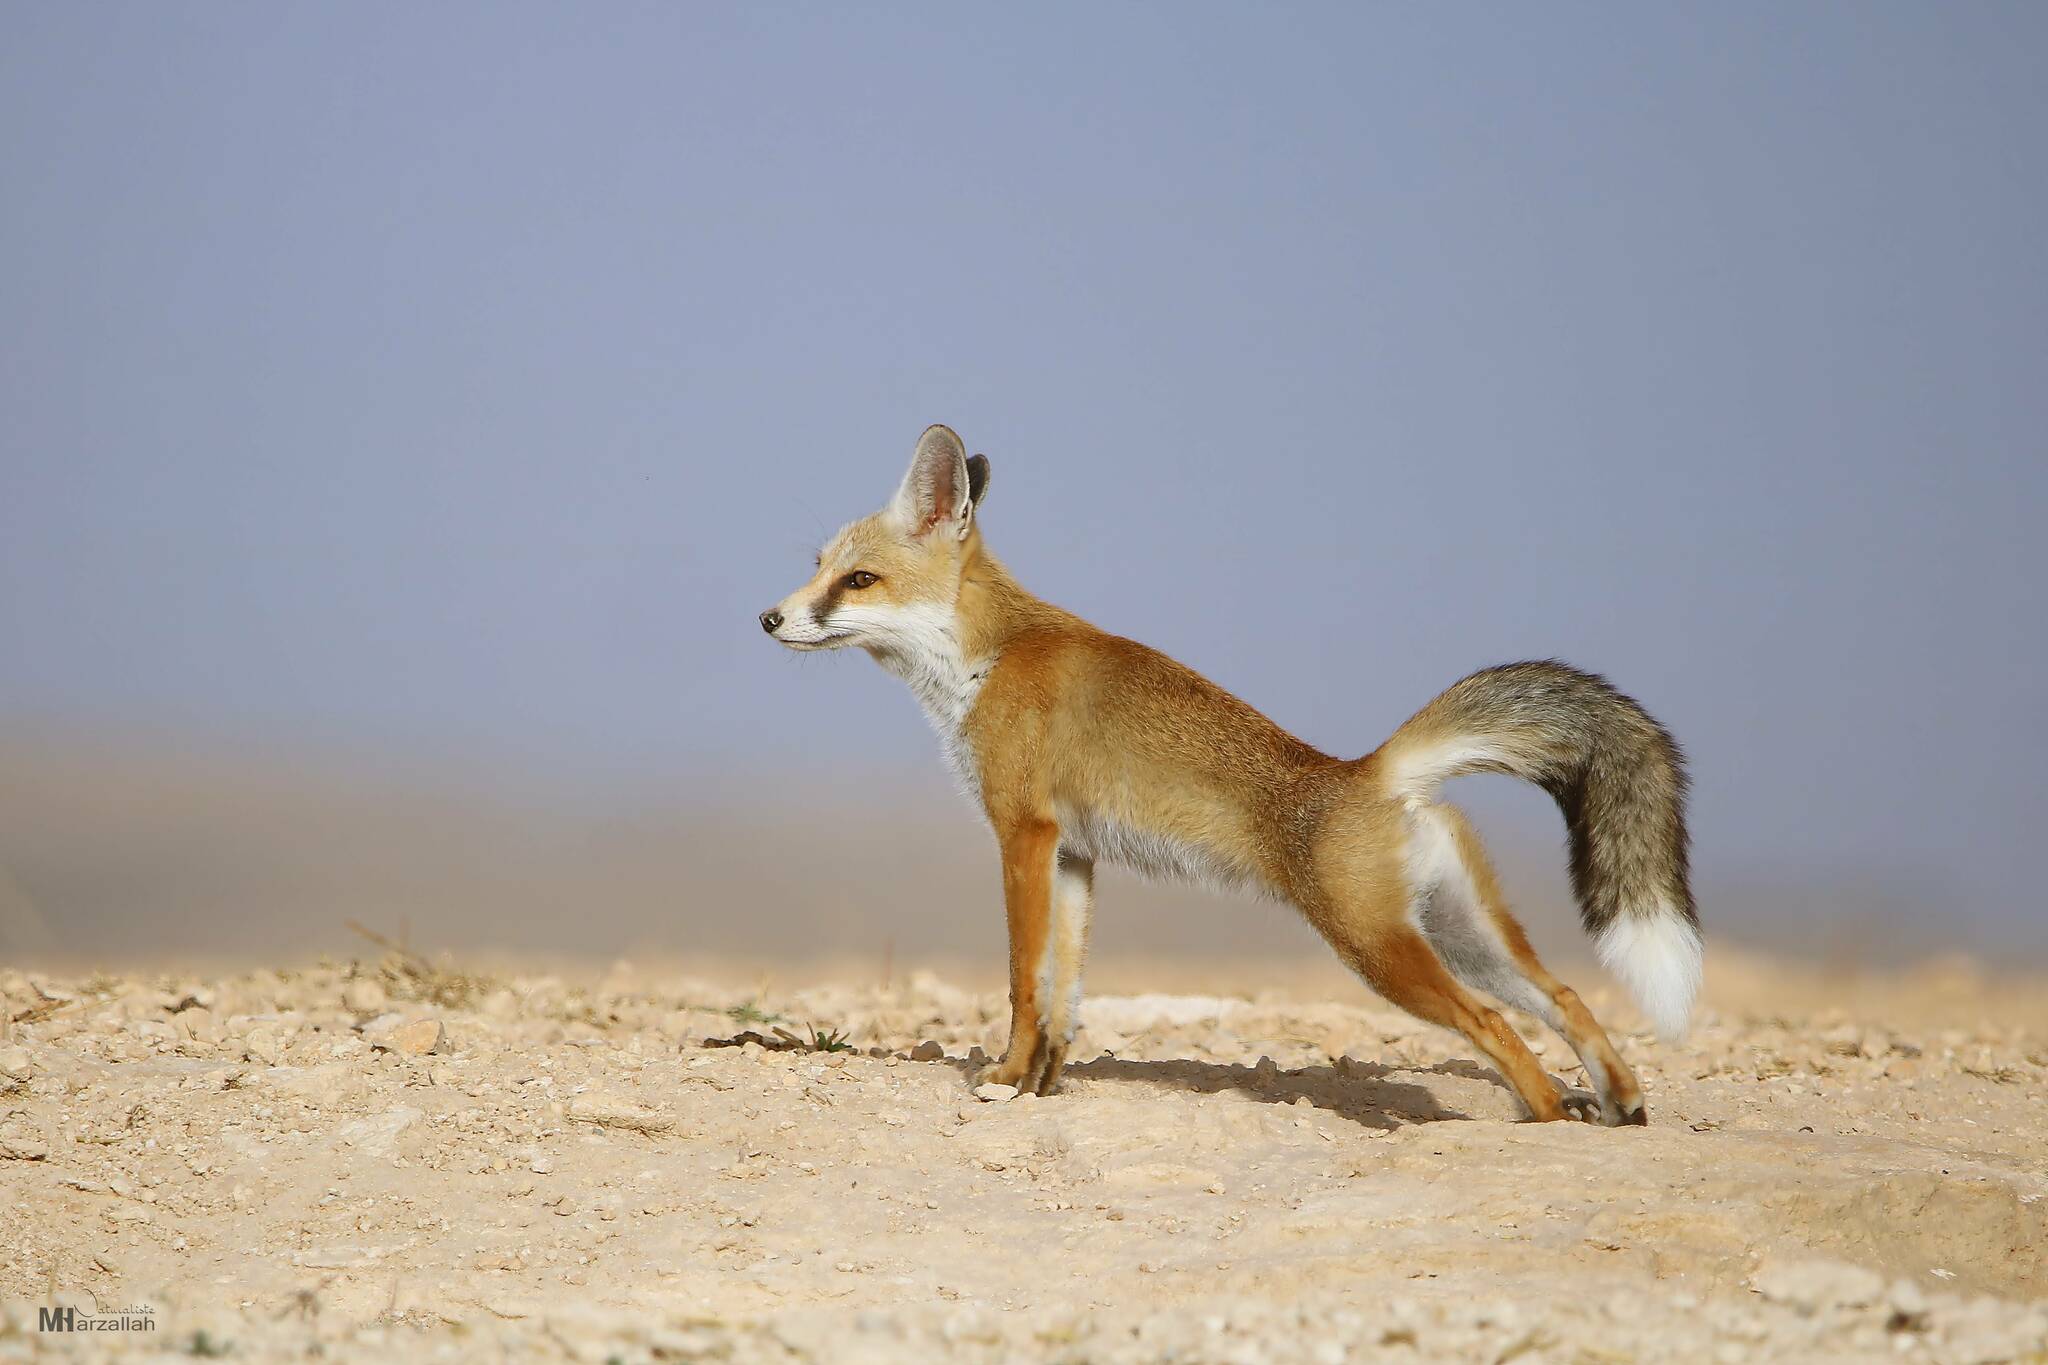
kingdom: Animalia
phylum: Chordata
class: Mammalia
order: Carnivora
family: Canidae
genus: Vulpes
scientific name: Vulpes vulpes
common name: Red fox
